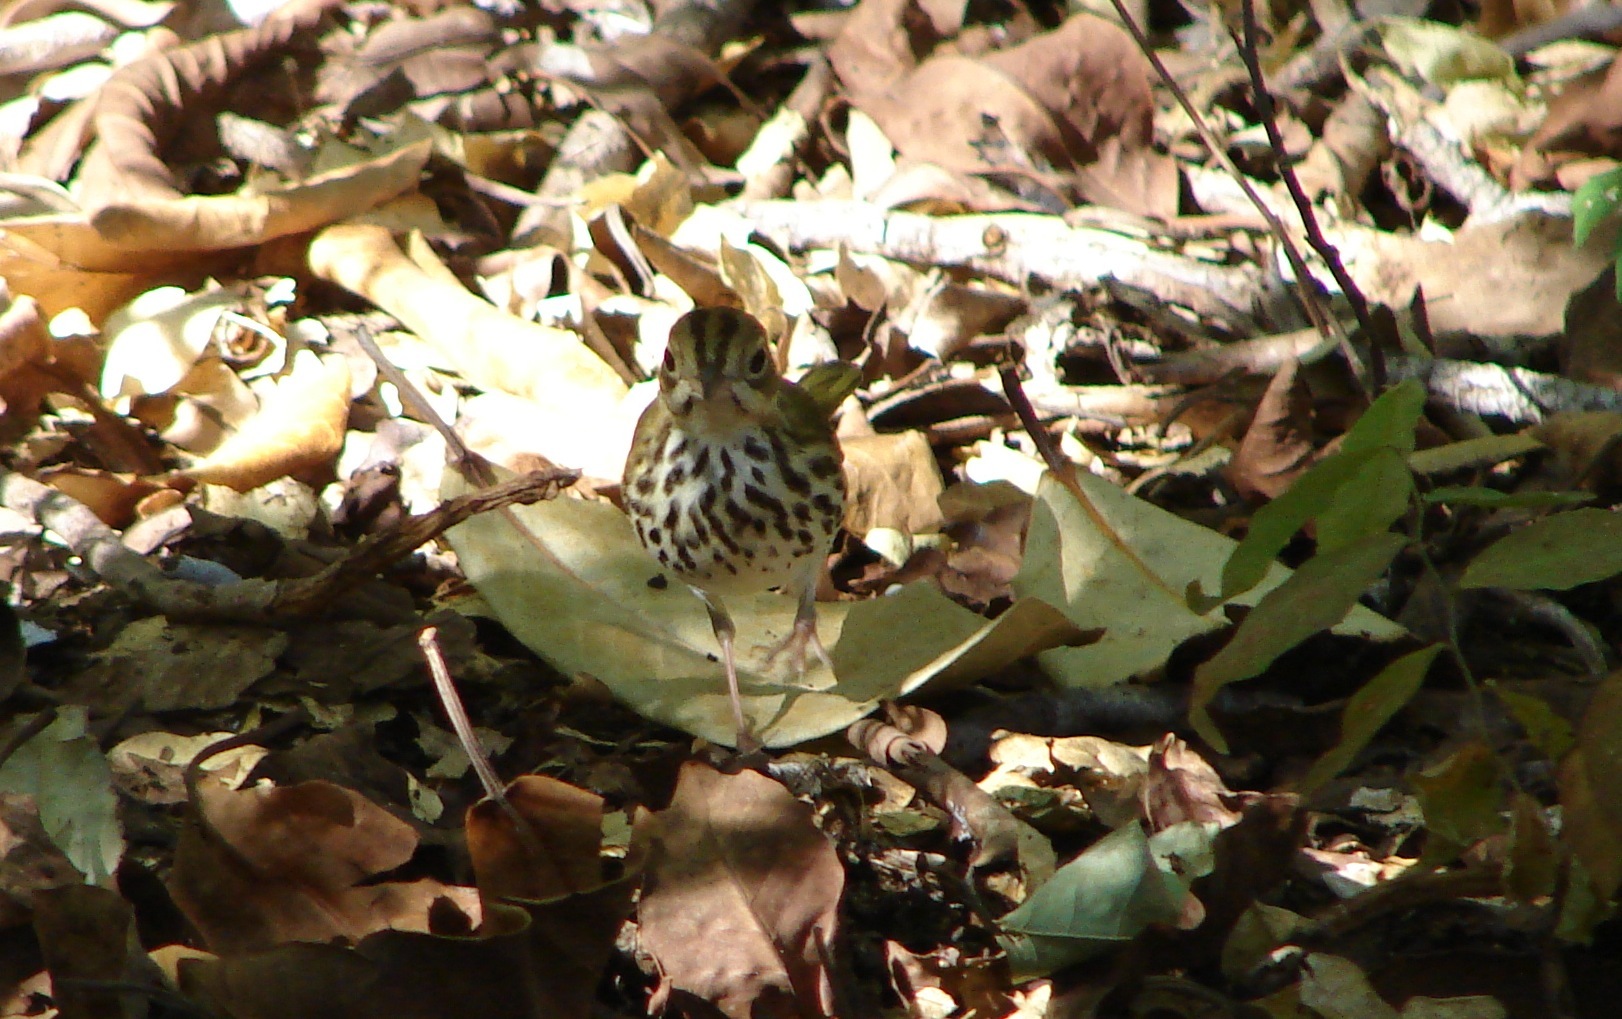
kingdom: Animalia
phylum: Chordata
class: Aves
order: Passeriformes
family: Parulidae
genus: Seiurus
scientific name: Seiurus aurocapilla
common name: Ovenbird
